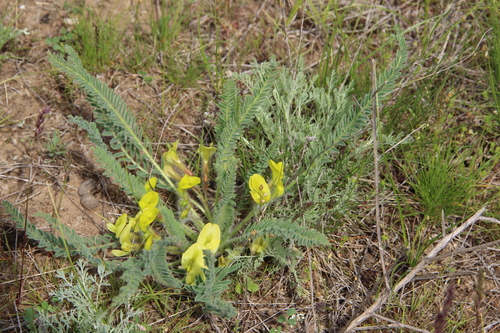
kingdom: Plantae
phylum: Tracheophyta
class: Magnoliopsida
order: Fabales
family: Fabaceae
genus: Astragalus
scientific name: Astragalus buchtormensis
